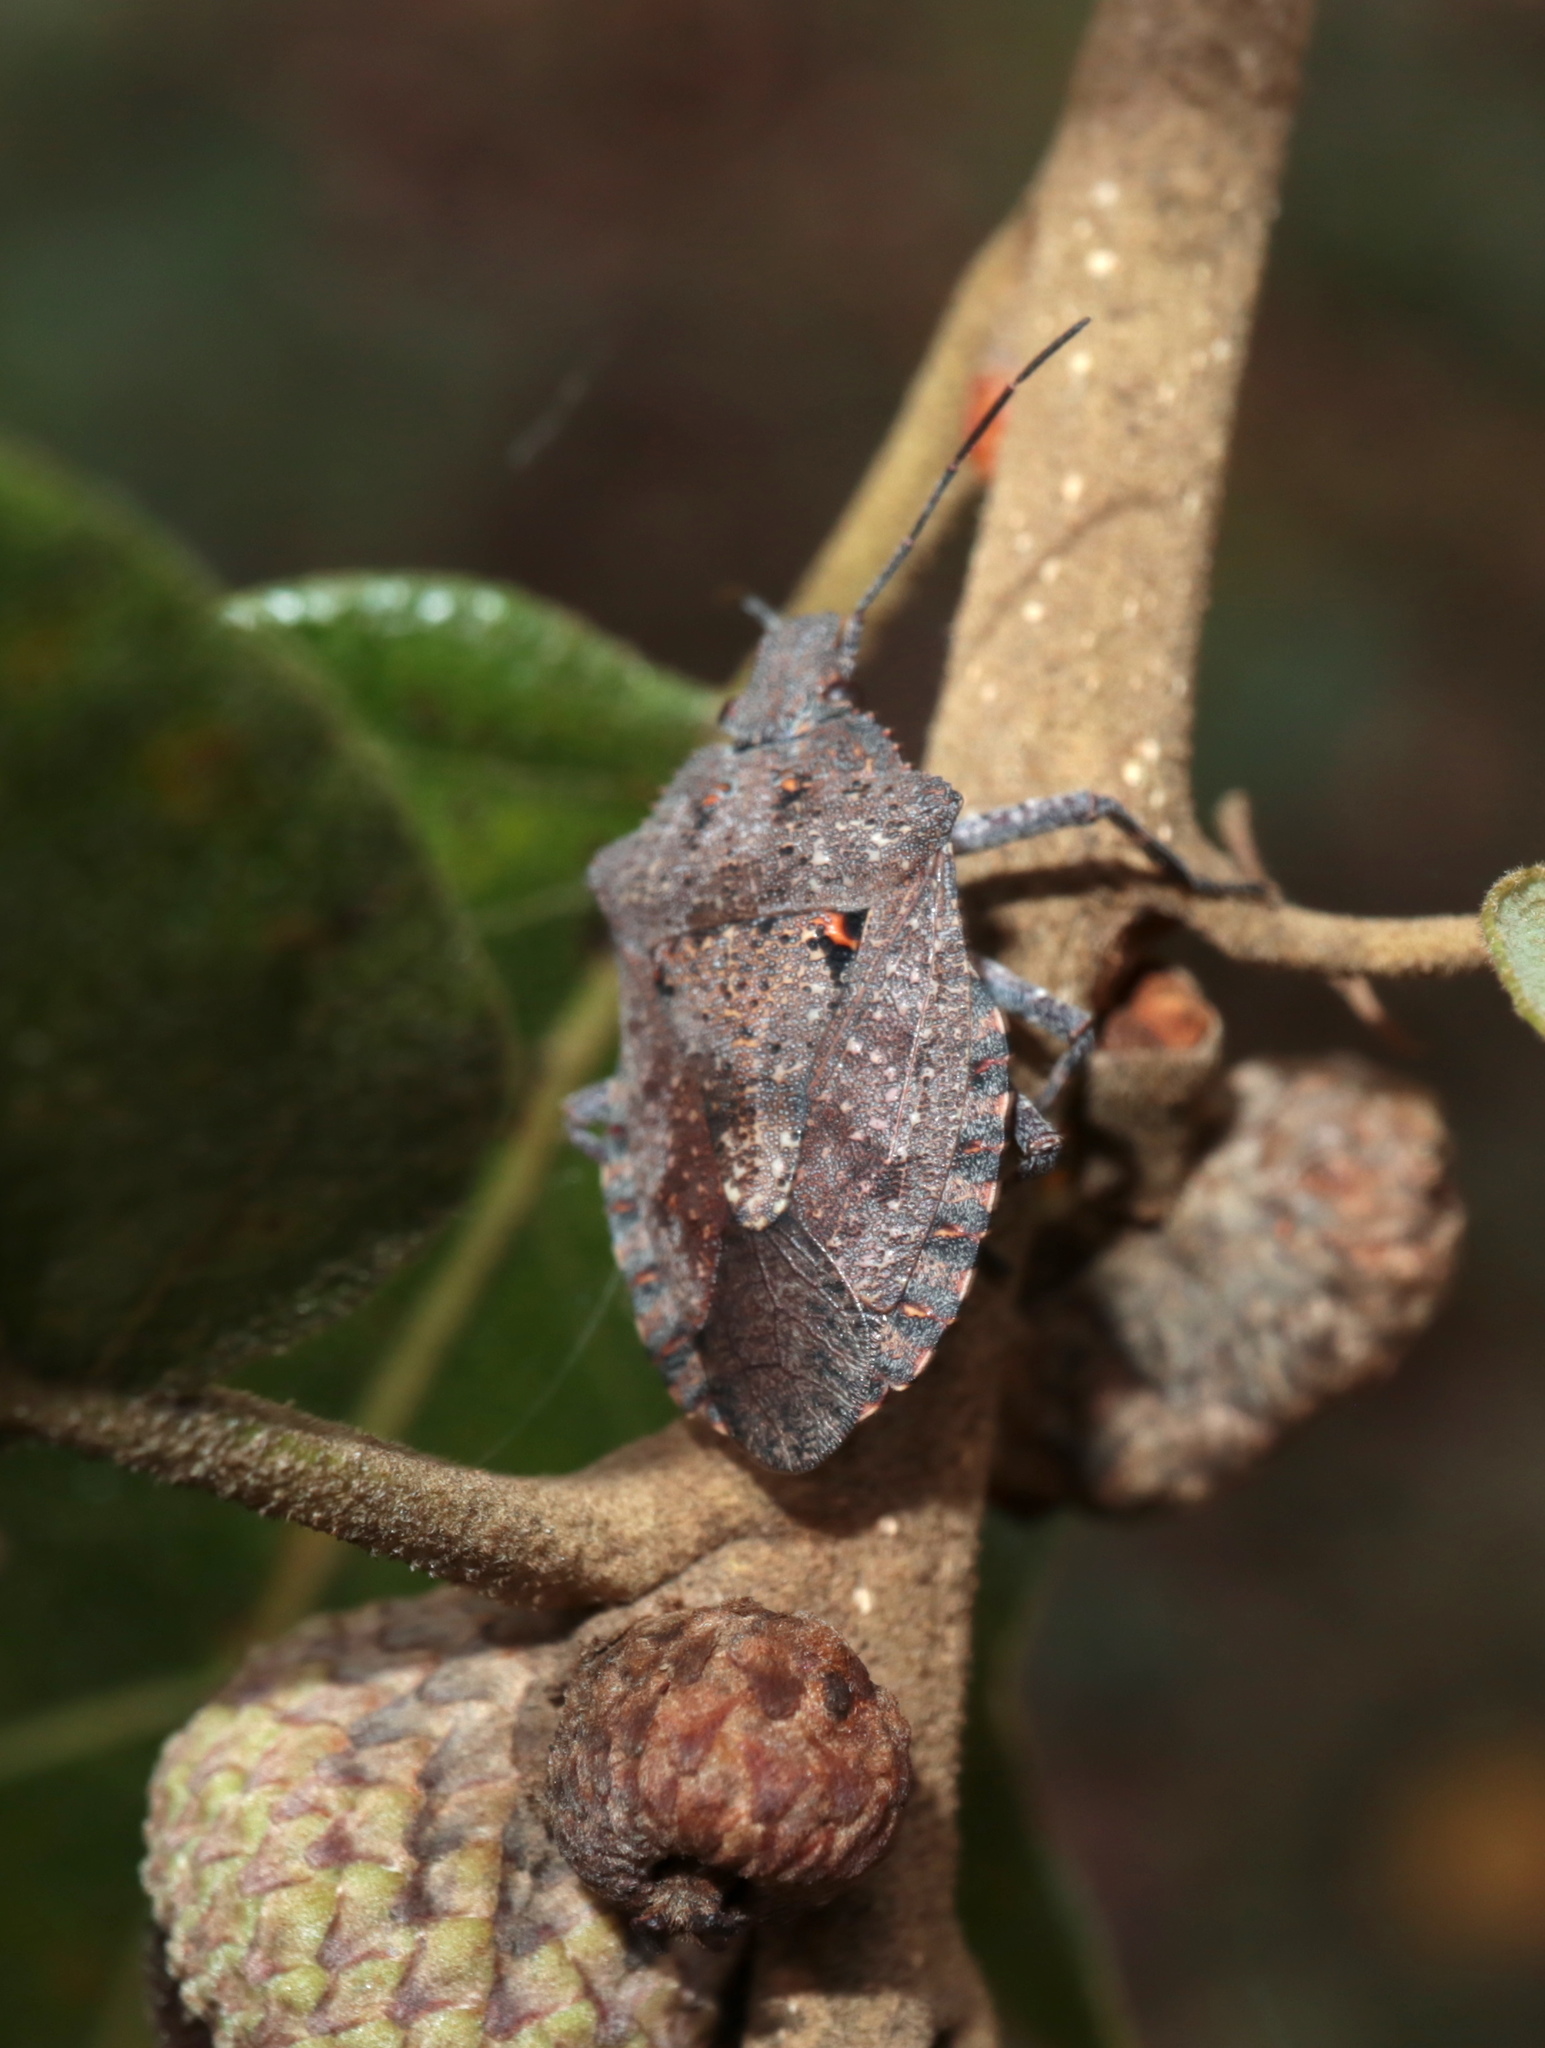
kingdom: Animalia
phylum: Arthropoda
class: Insecta
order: Hemiptera
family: Pentatomidae
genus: Brochymena
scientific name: Brochymena quadripustulata
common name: Four-humped stink bug
